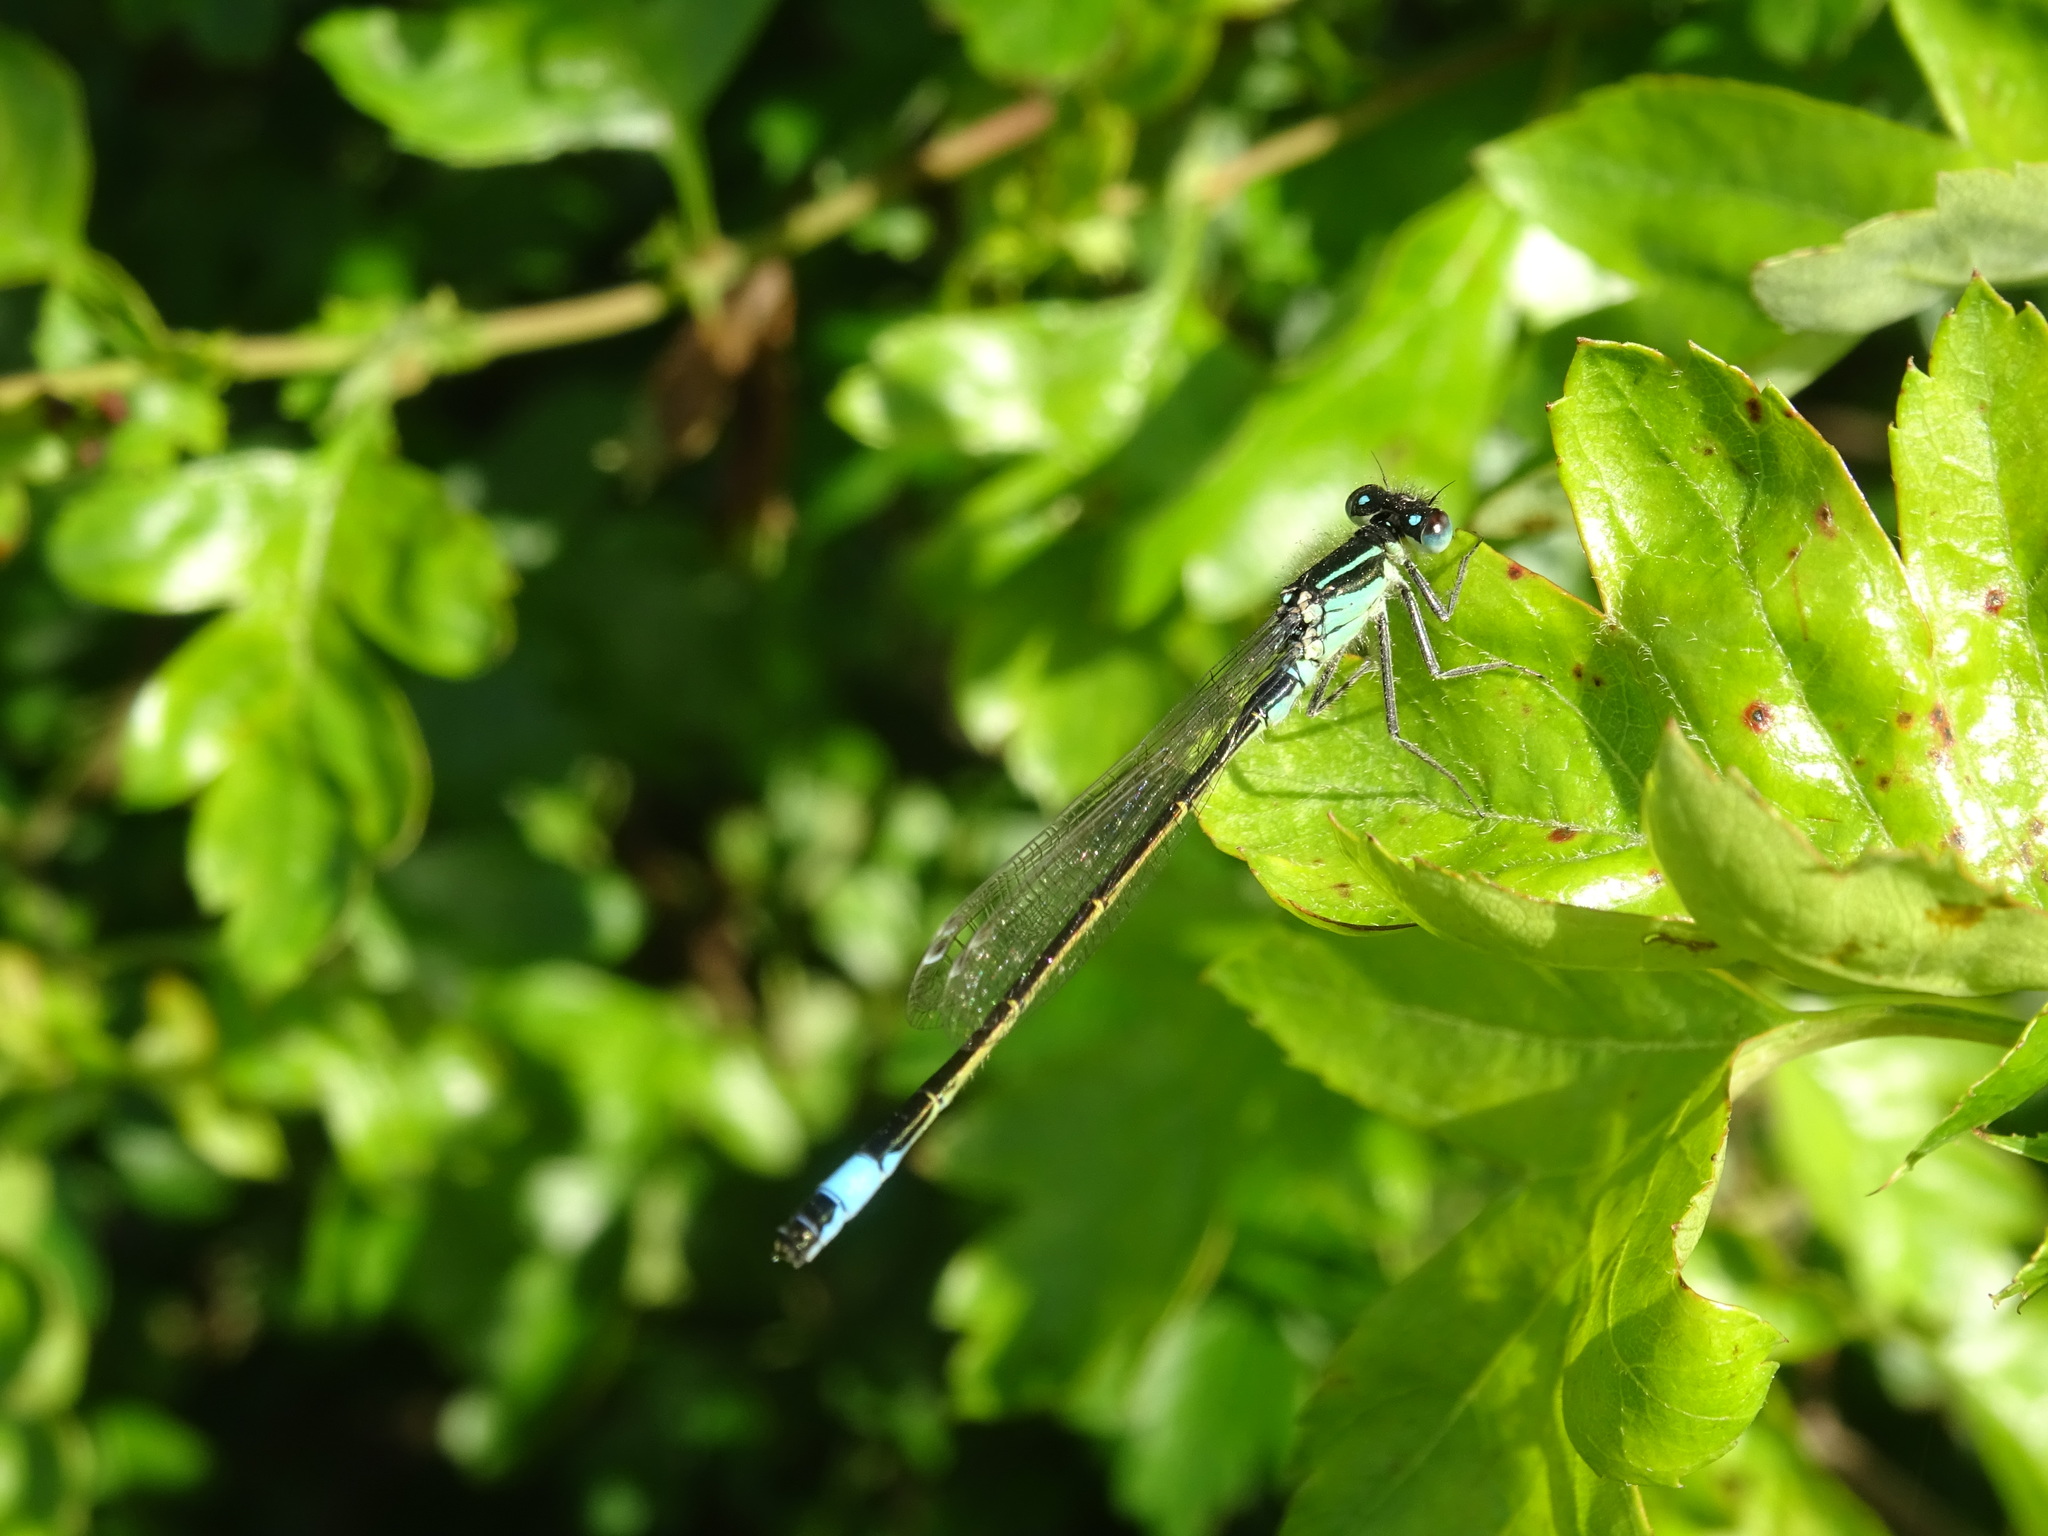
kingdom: Animalia
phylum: Arthropoda
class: Insecta
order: Odonata
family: Coenagrionidae
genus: Ischnura
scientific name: Ischnura elegans
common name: Blue-tailed damselfly
